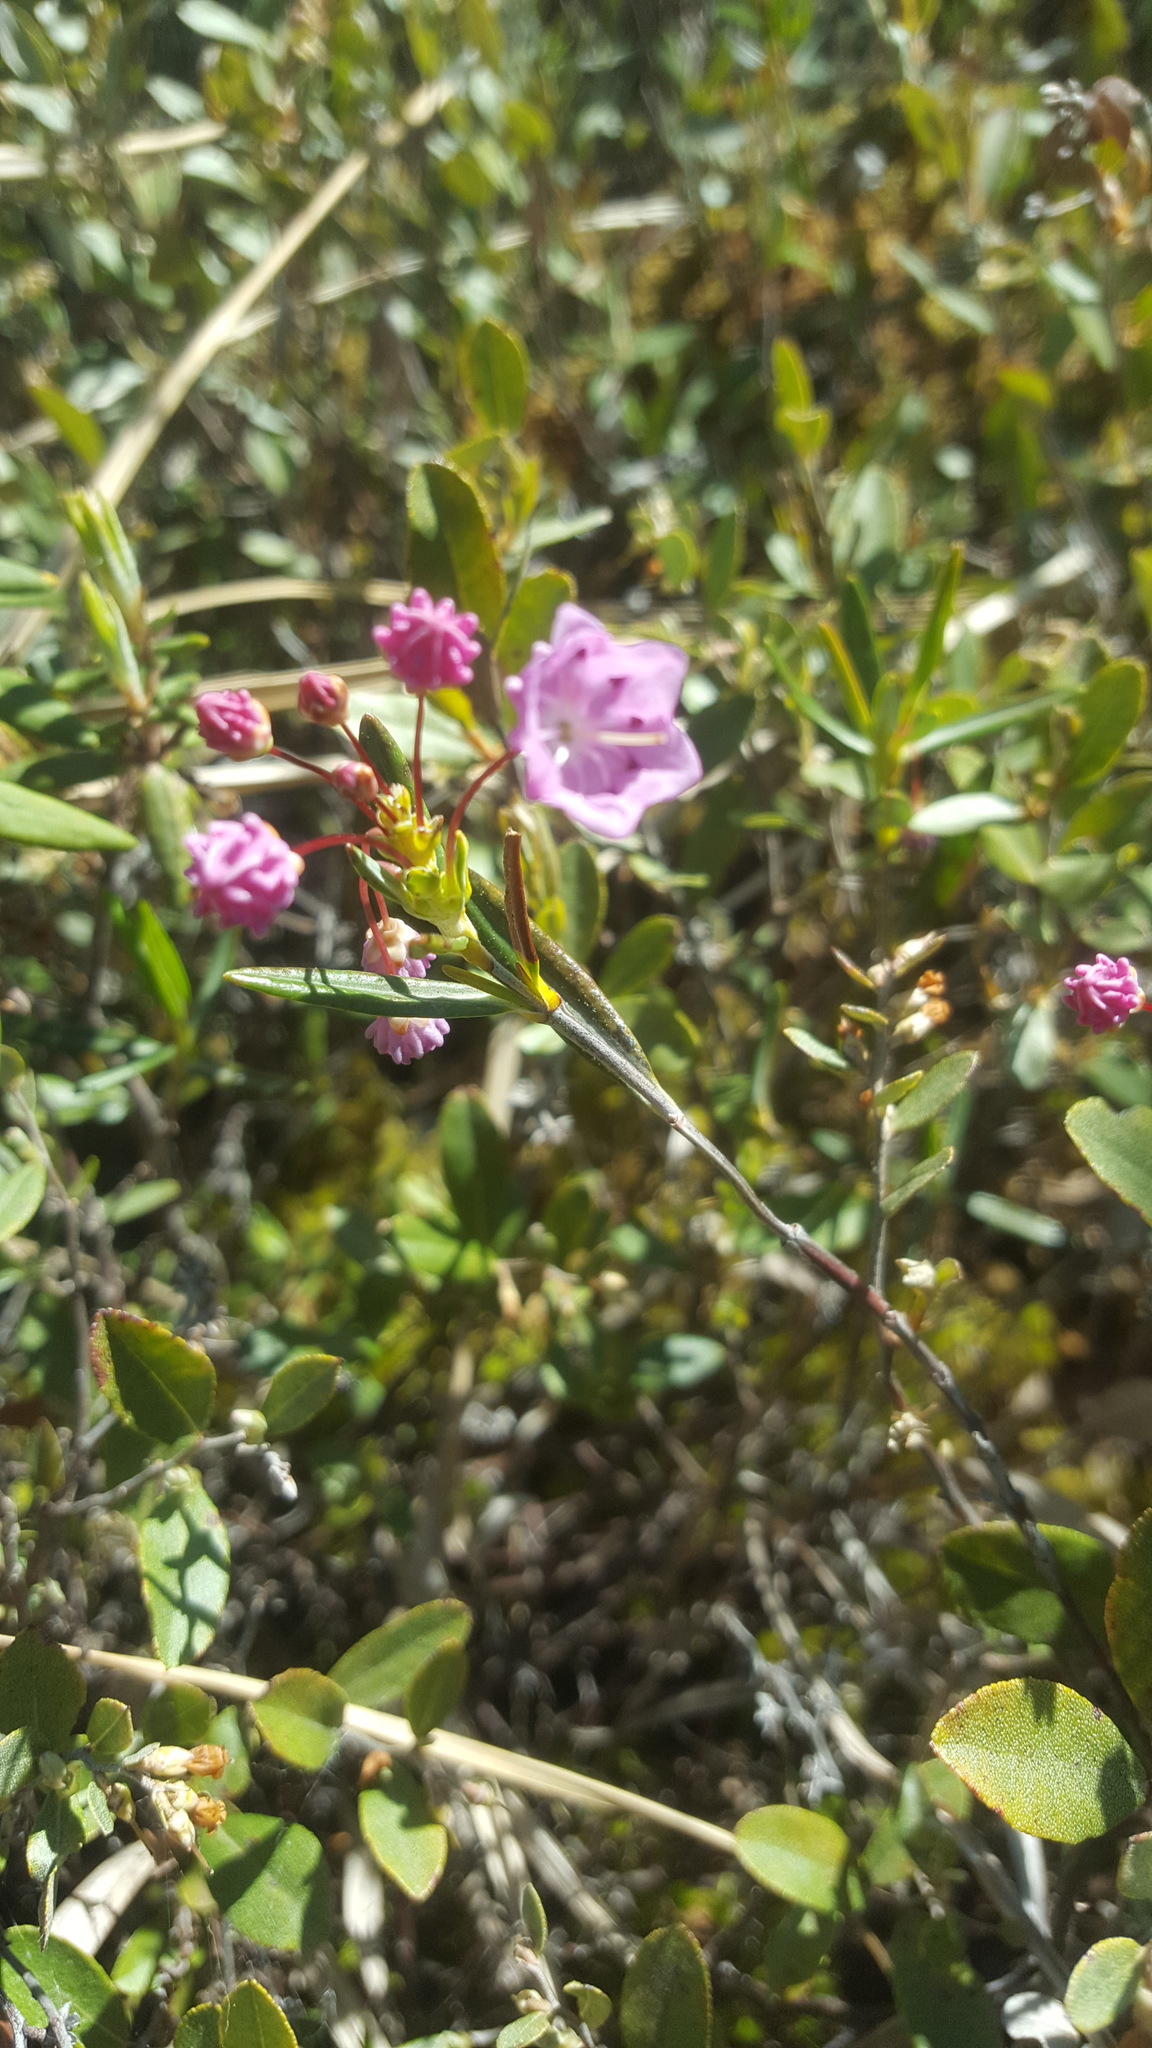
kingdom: Plantae
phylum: Tracheophyta
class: Magnoliopsida
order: Ericales
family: Ericaceae
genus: Kalmia
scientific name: Kalmia polifolia
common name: Bog-laurel
